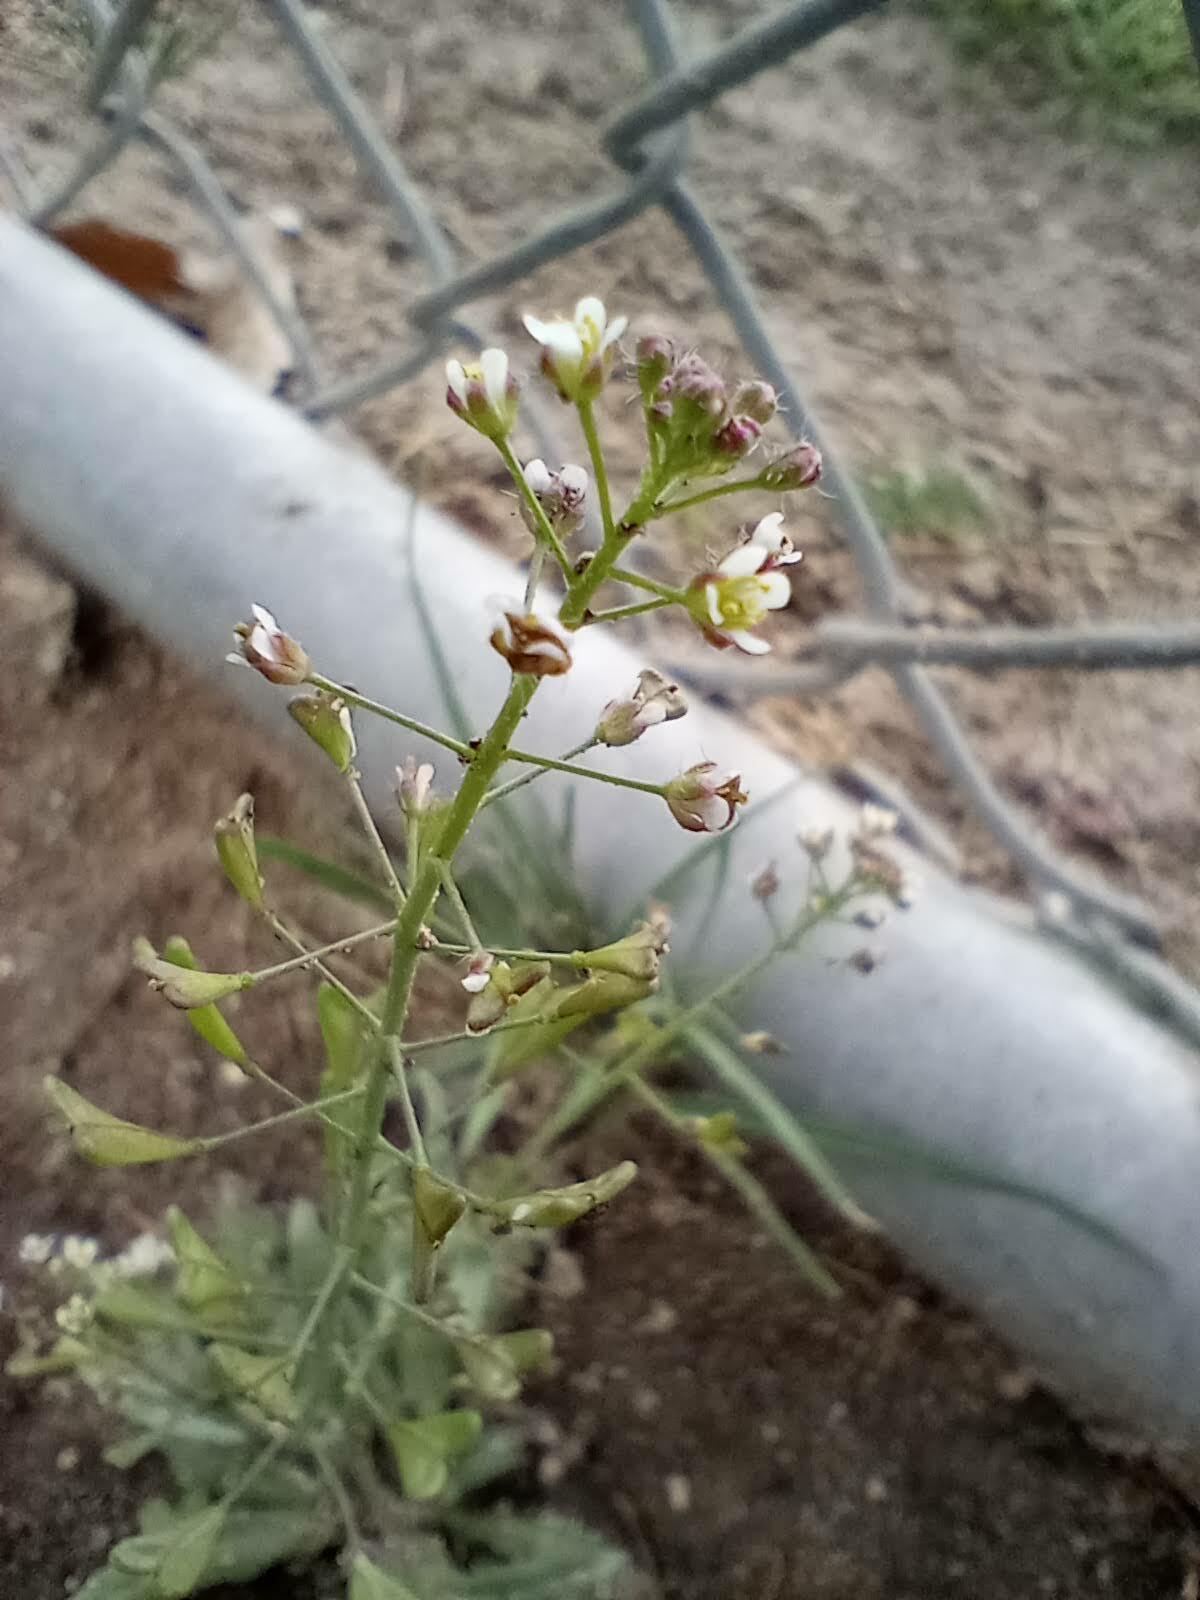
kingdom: Plantae
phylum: Tracheophyta
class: Magnoliopsida
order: Brassicales
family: Brassicaceae
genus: Capsella
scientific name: Capsella bursa-pastoris
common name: Shepherd's purse
